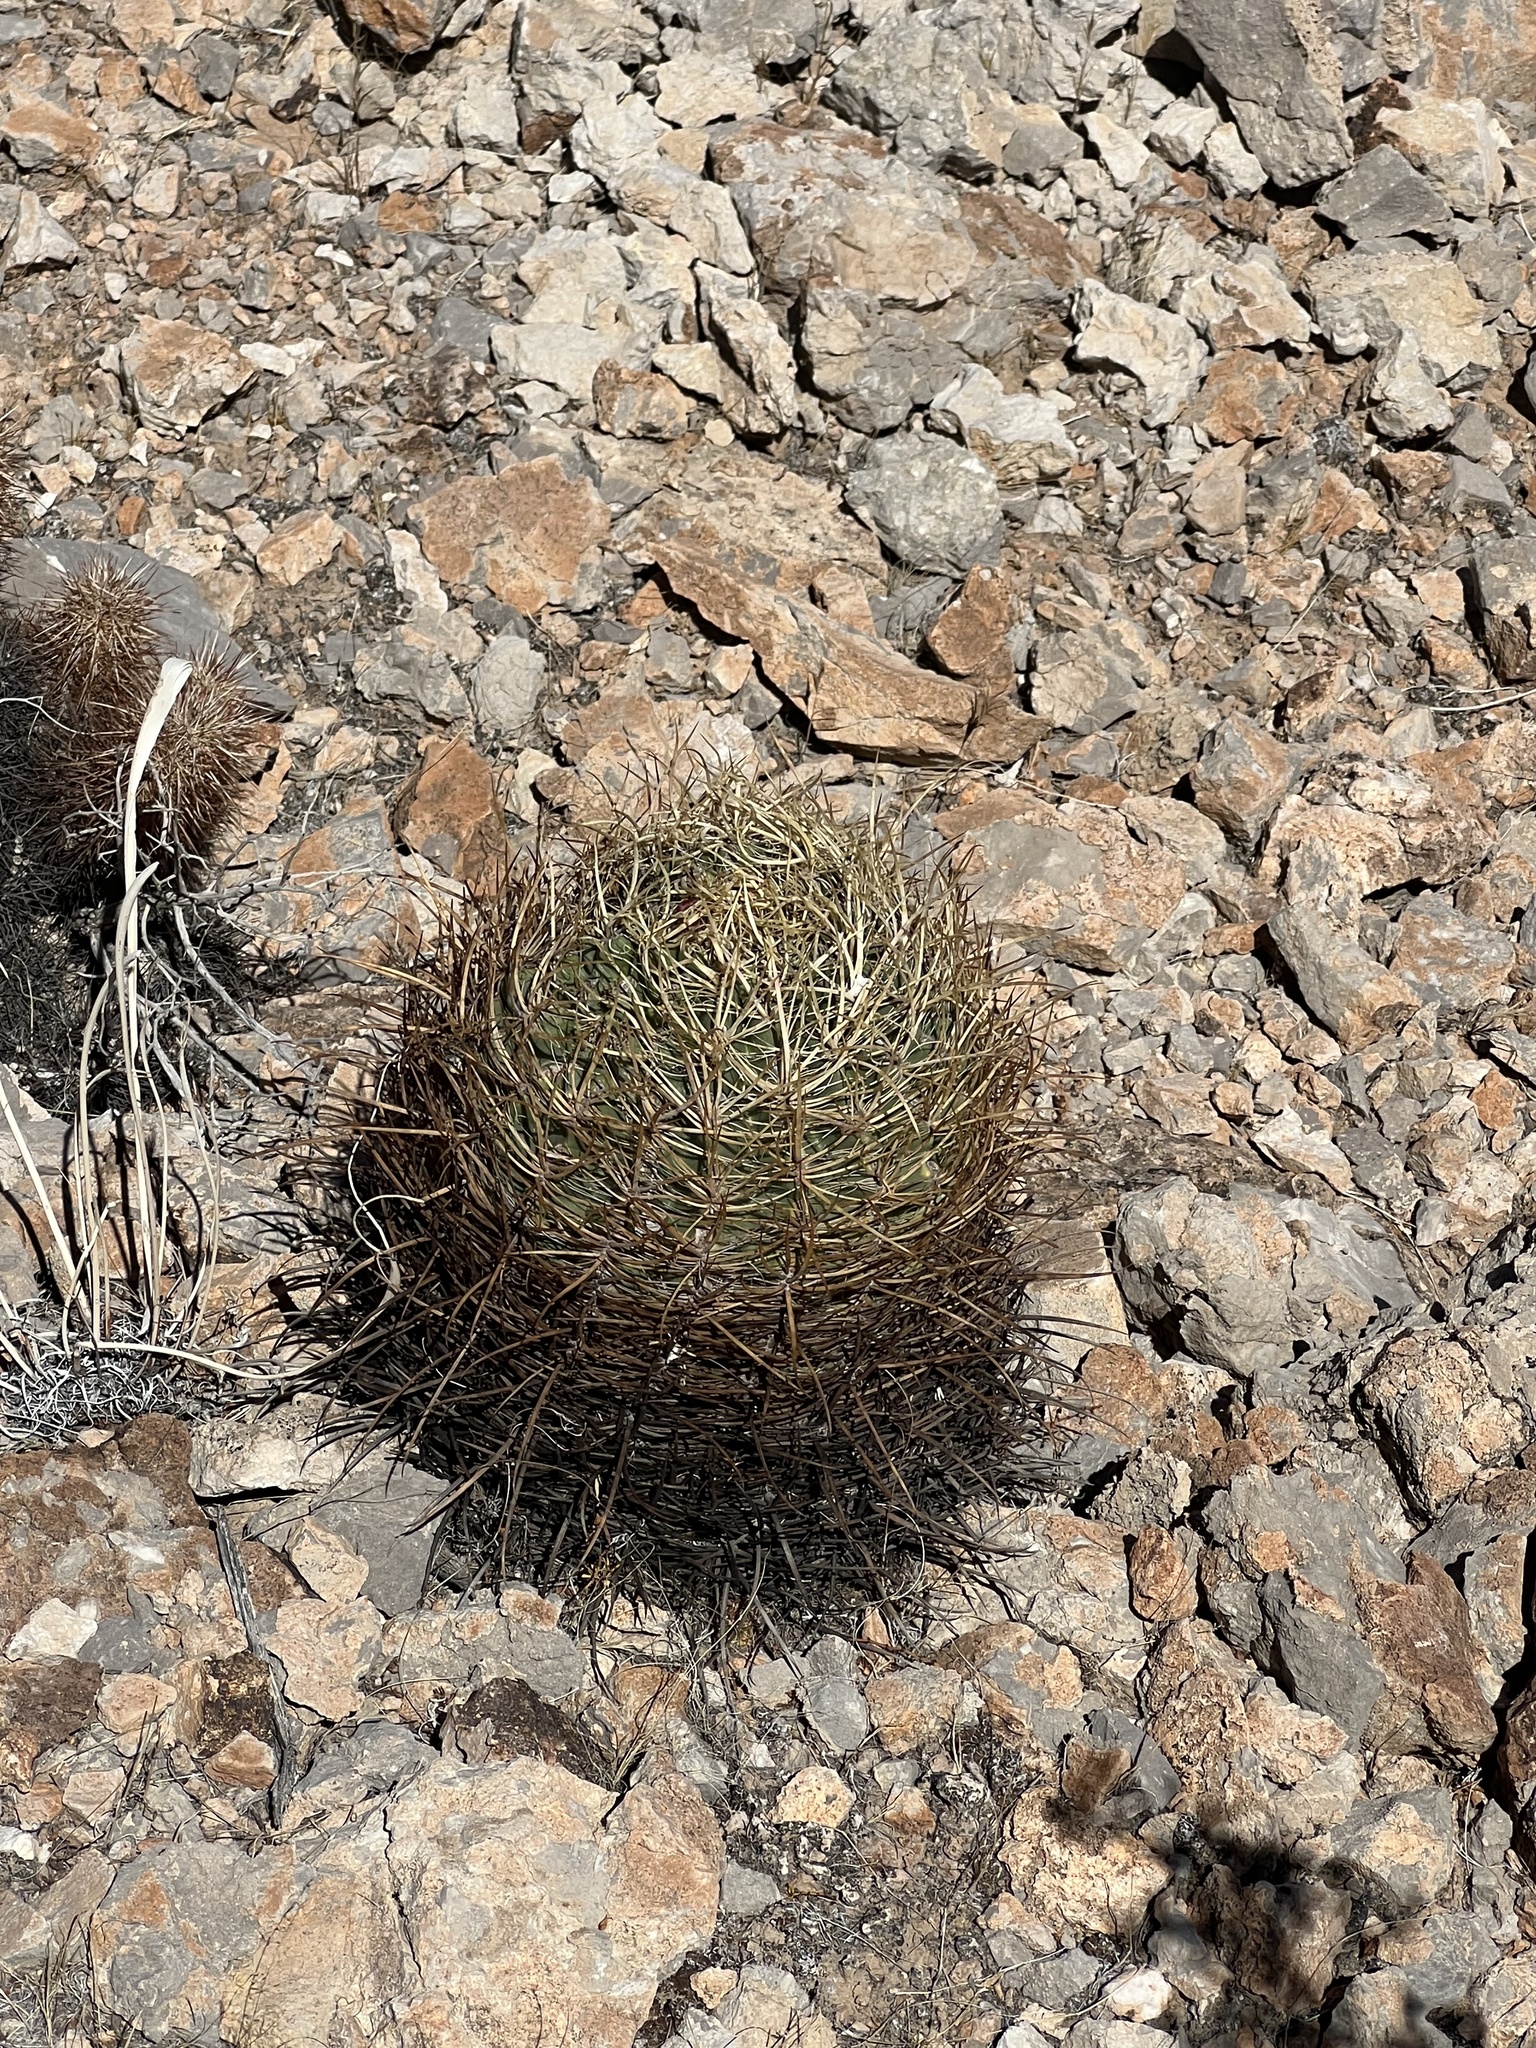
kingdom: Plantae
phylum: Tracheophyta
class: Magnoliopsida
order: Caryophyllales
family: Cactaceae
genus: Ferocactus
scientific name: Ferocactus cylindraceus
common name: California barrel cactus
